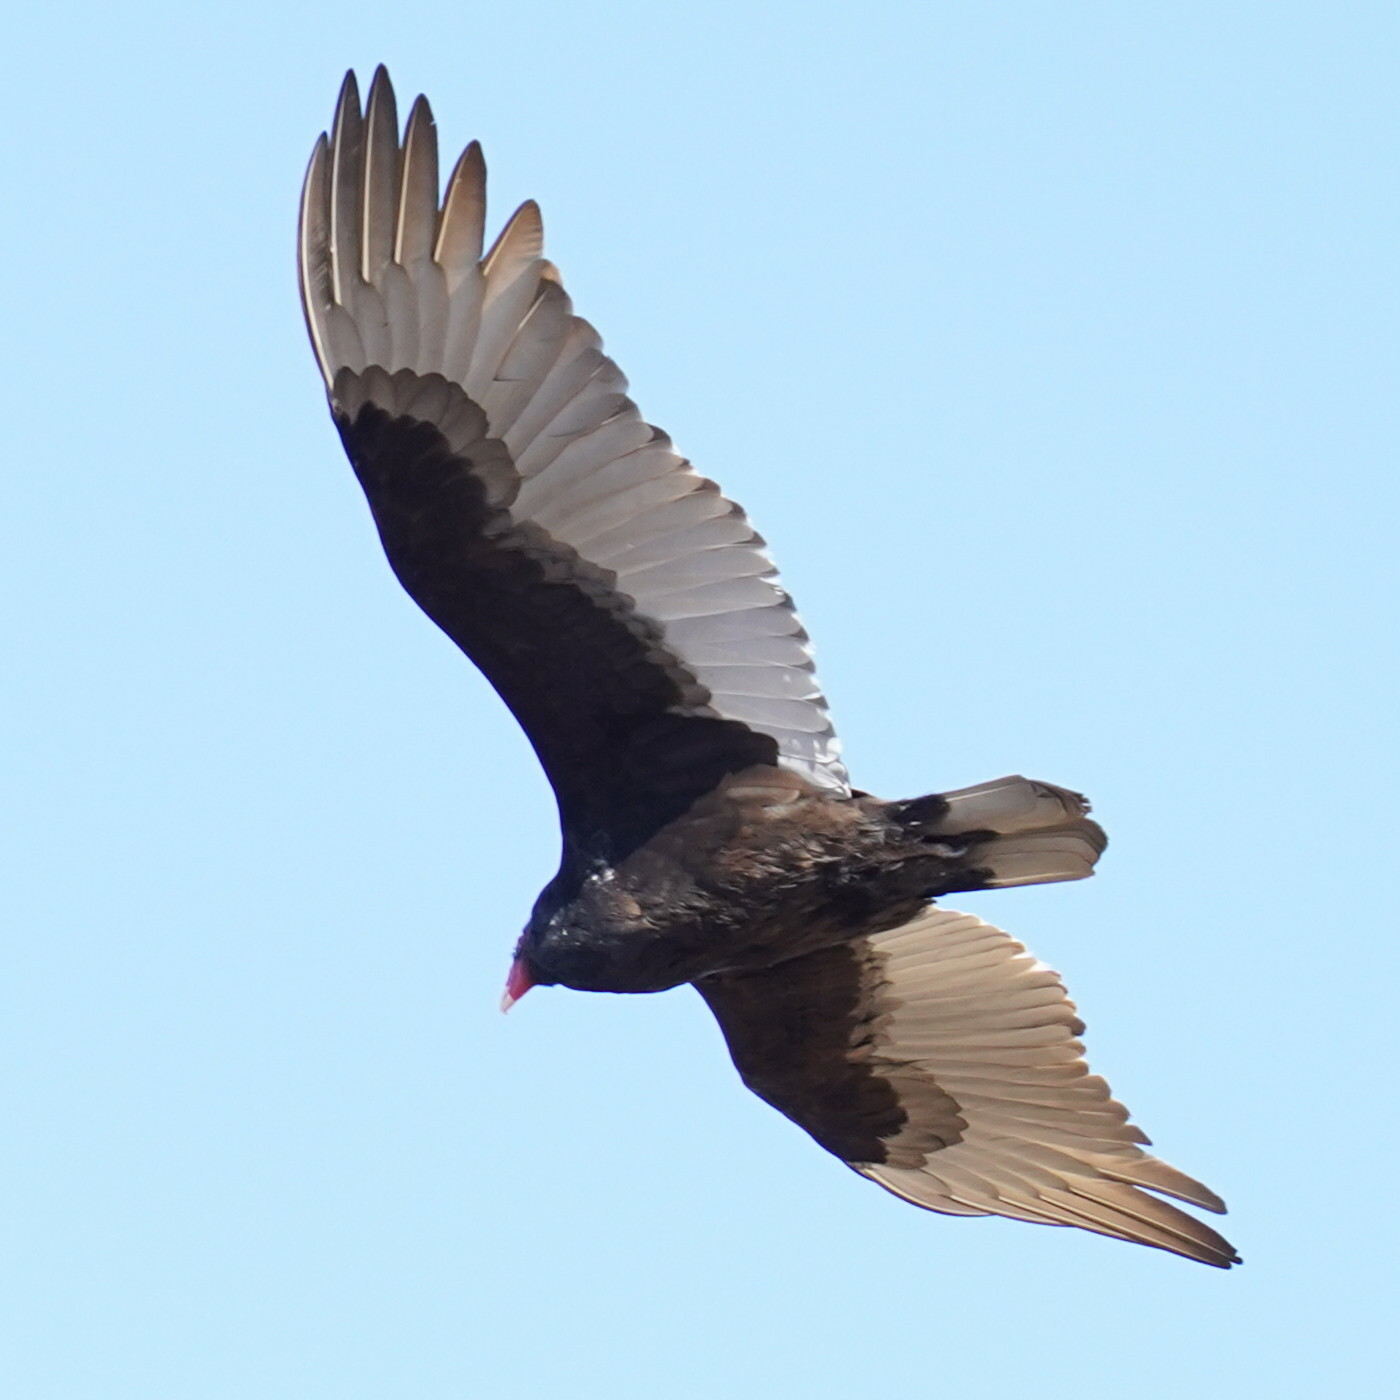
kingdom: Animalia
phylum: Chordata
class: Aves
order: Accipitriformes
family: Cathartidae
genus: Cathartes
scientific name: Cathartes aura
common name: Turkey vulture
